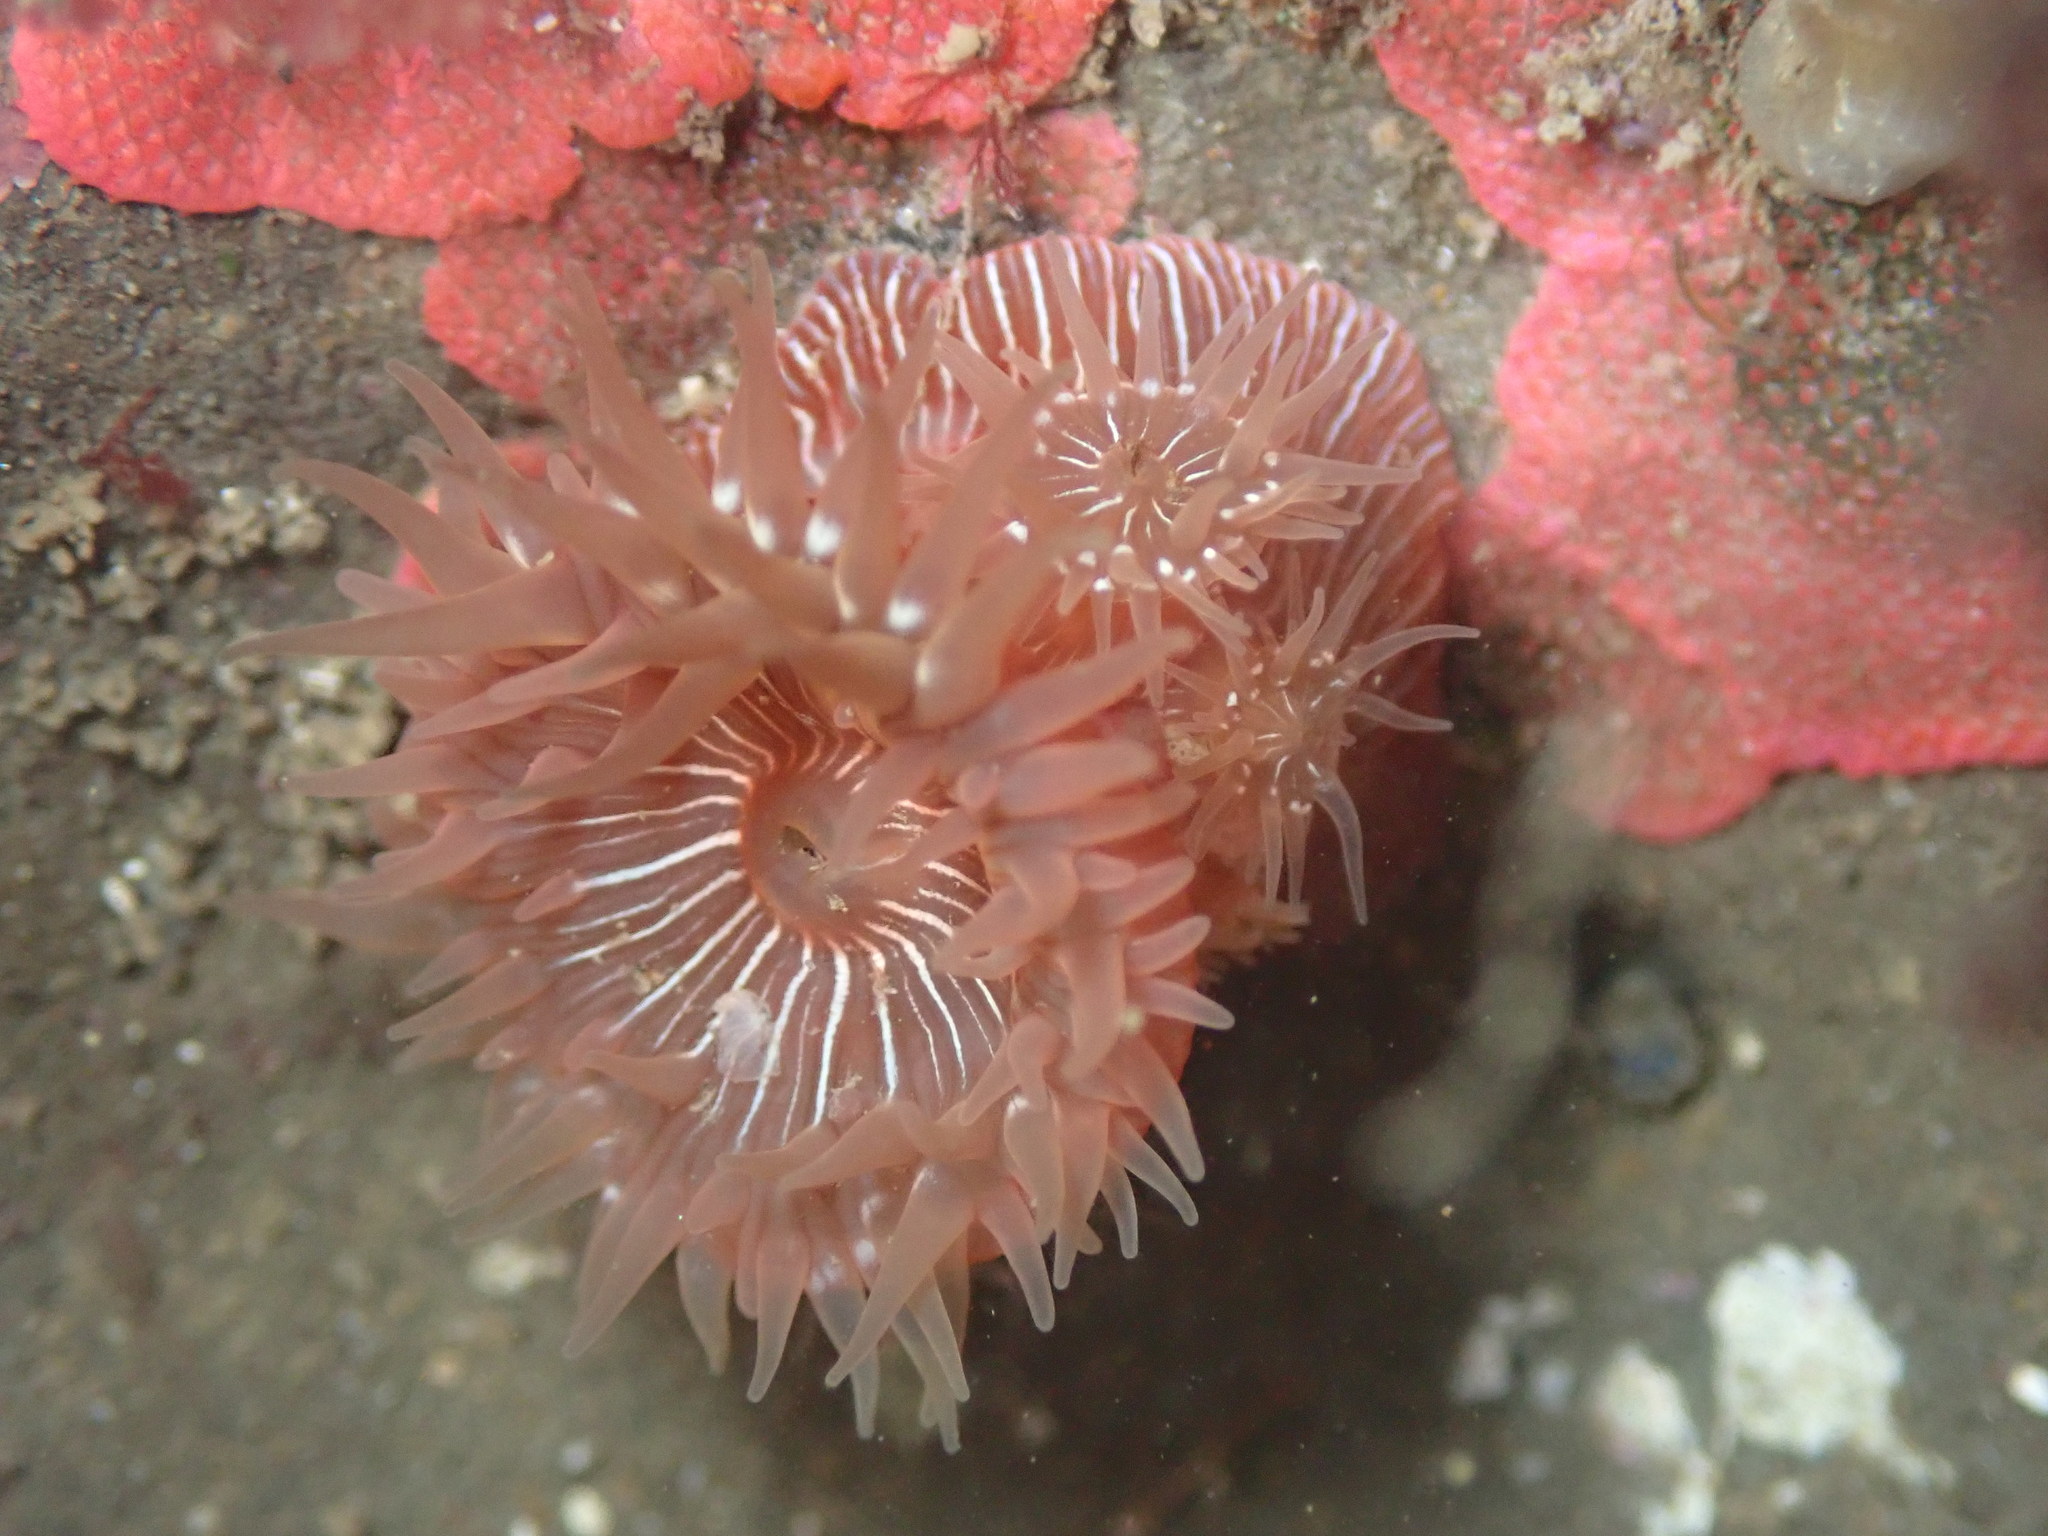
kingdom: Animalia
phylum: Cnidaria
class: Anthozoa
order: Actiniaria
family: Actiniidae
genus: Epiactis
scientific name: Epiactis prolifera
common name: Brooding anemone
